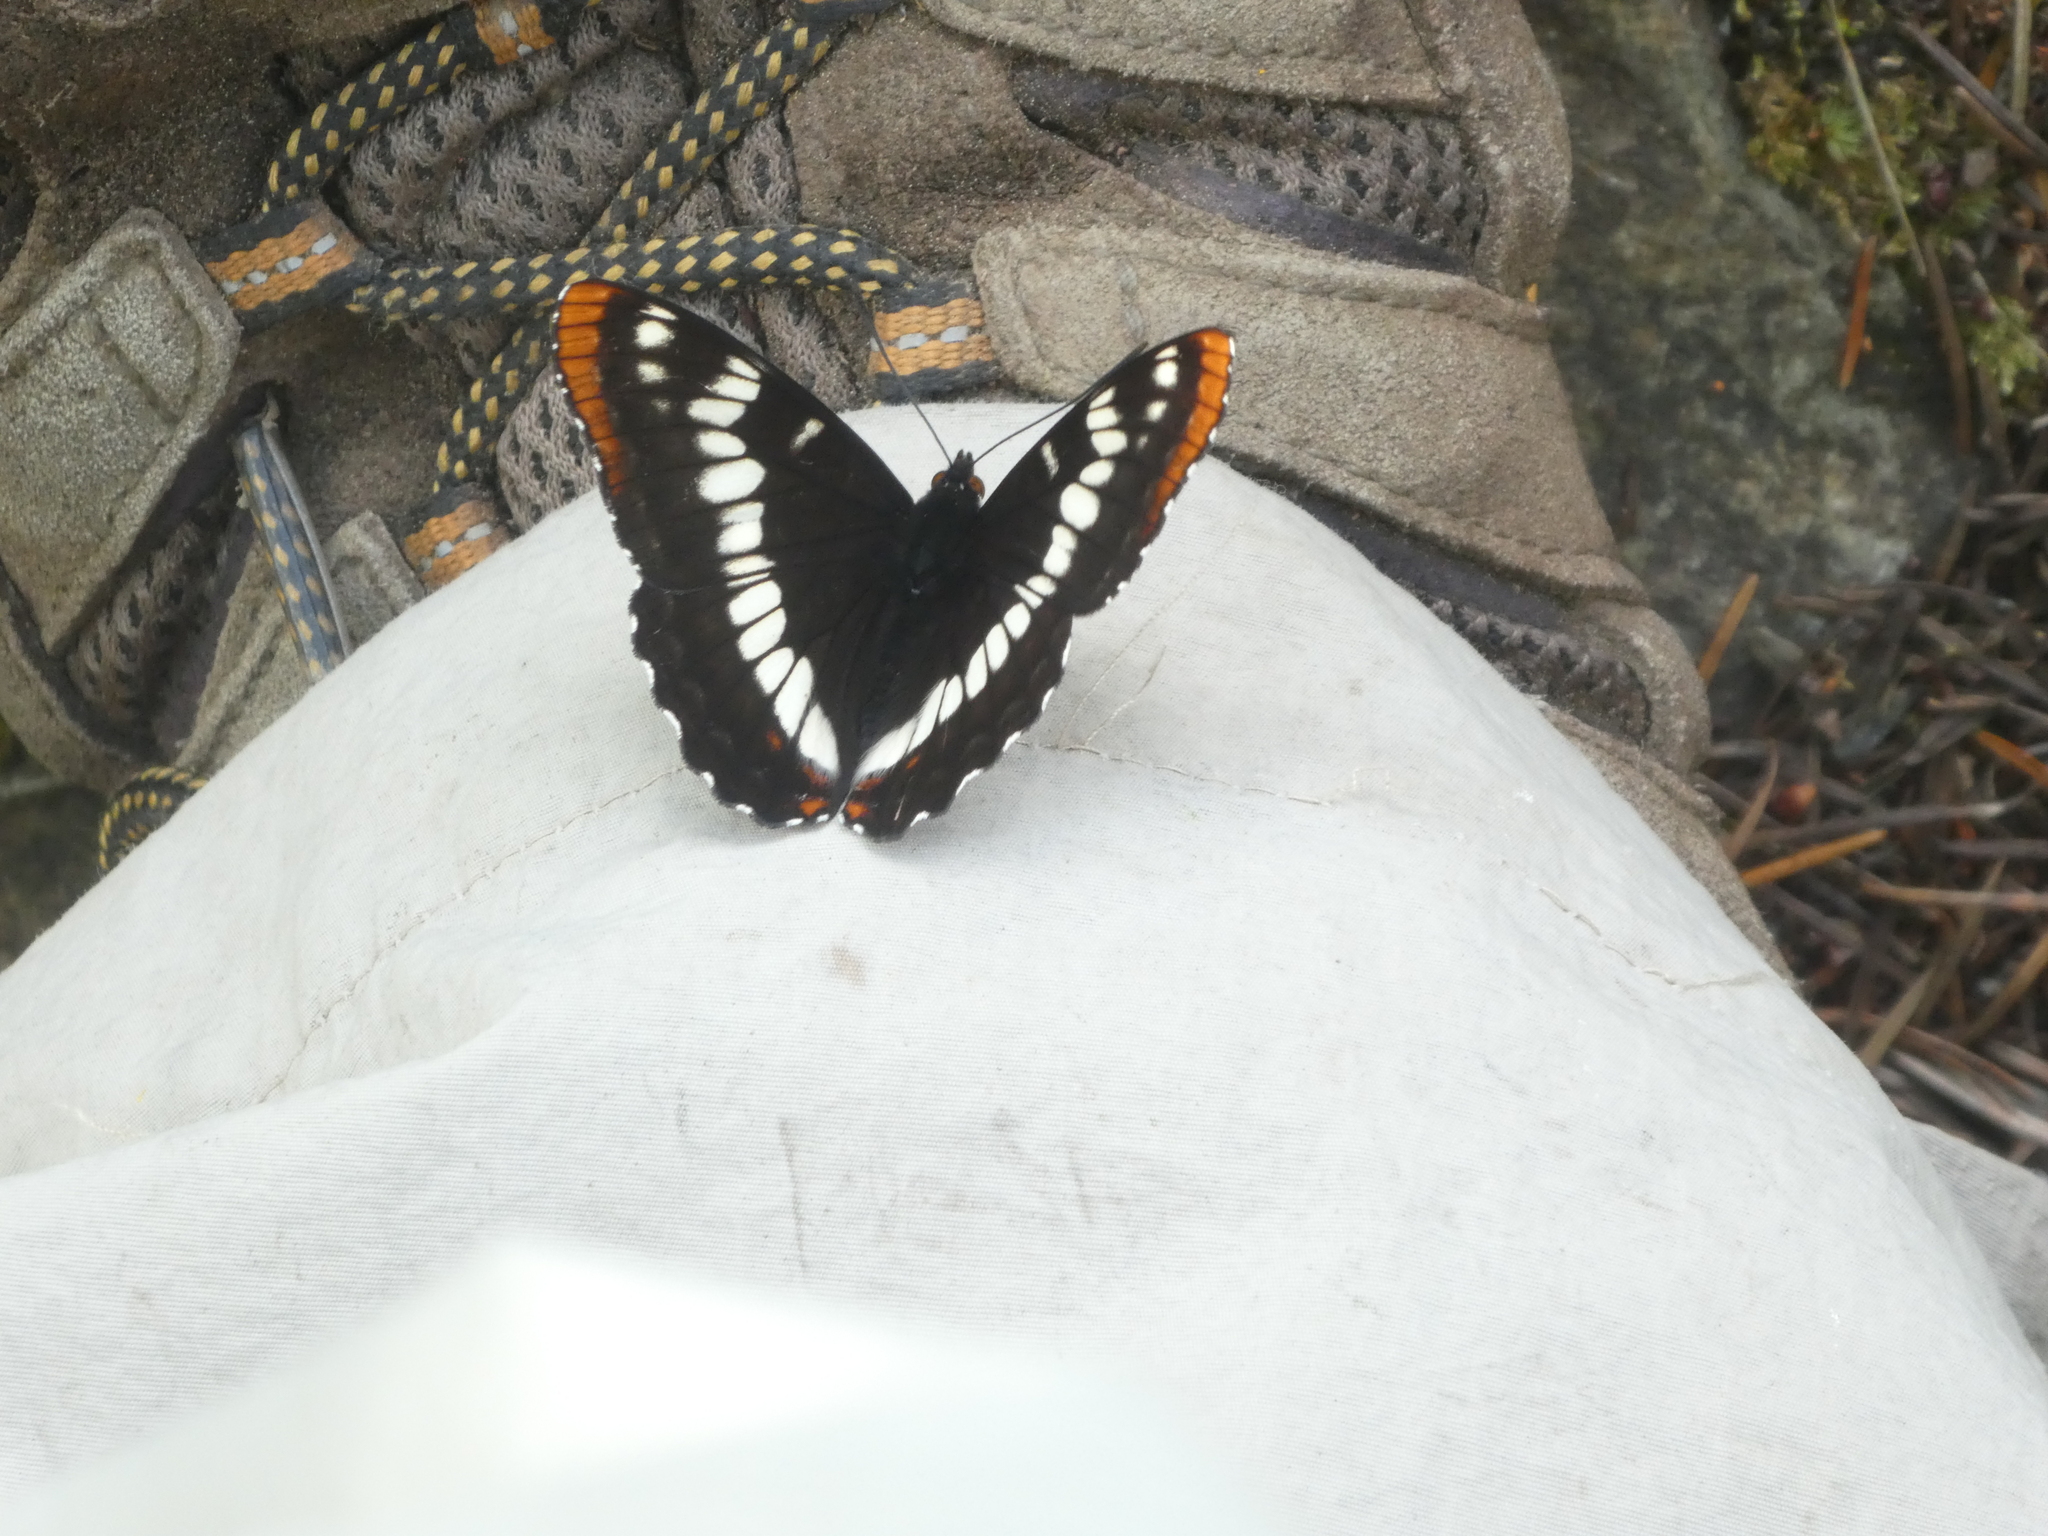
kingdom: Animalia
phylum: Arthropoda
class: Insecta
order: Lepidoptera
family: Nymphalidae
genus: Limenitis
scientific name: Limenitis lorquini
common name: Lorquin's admiral
